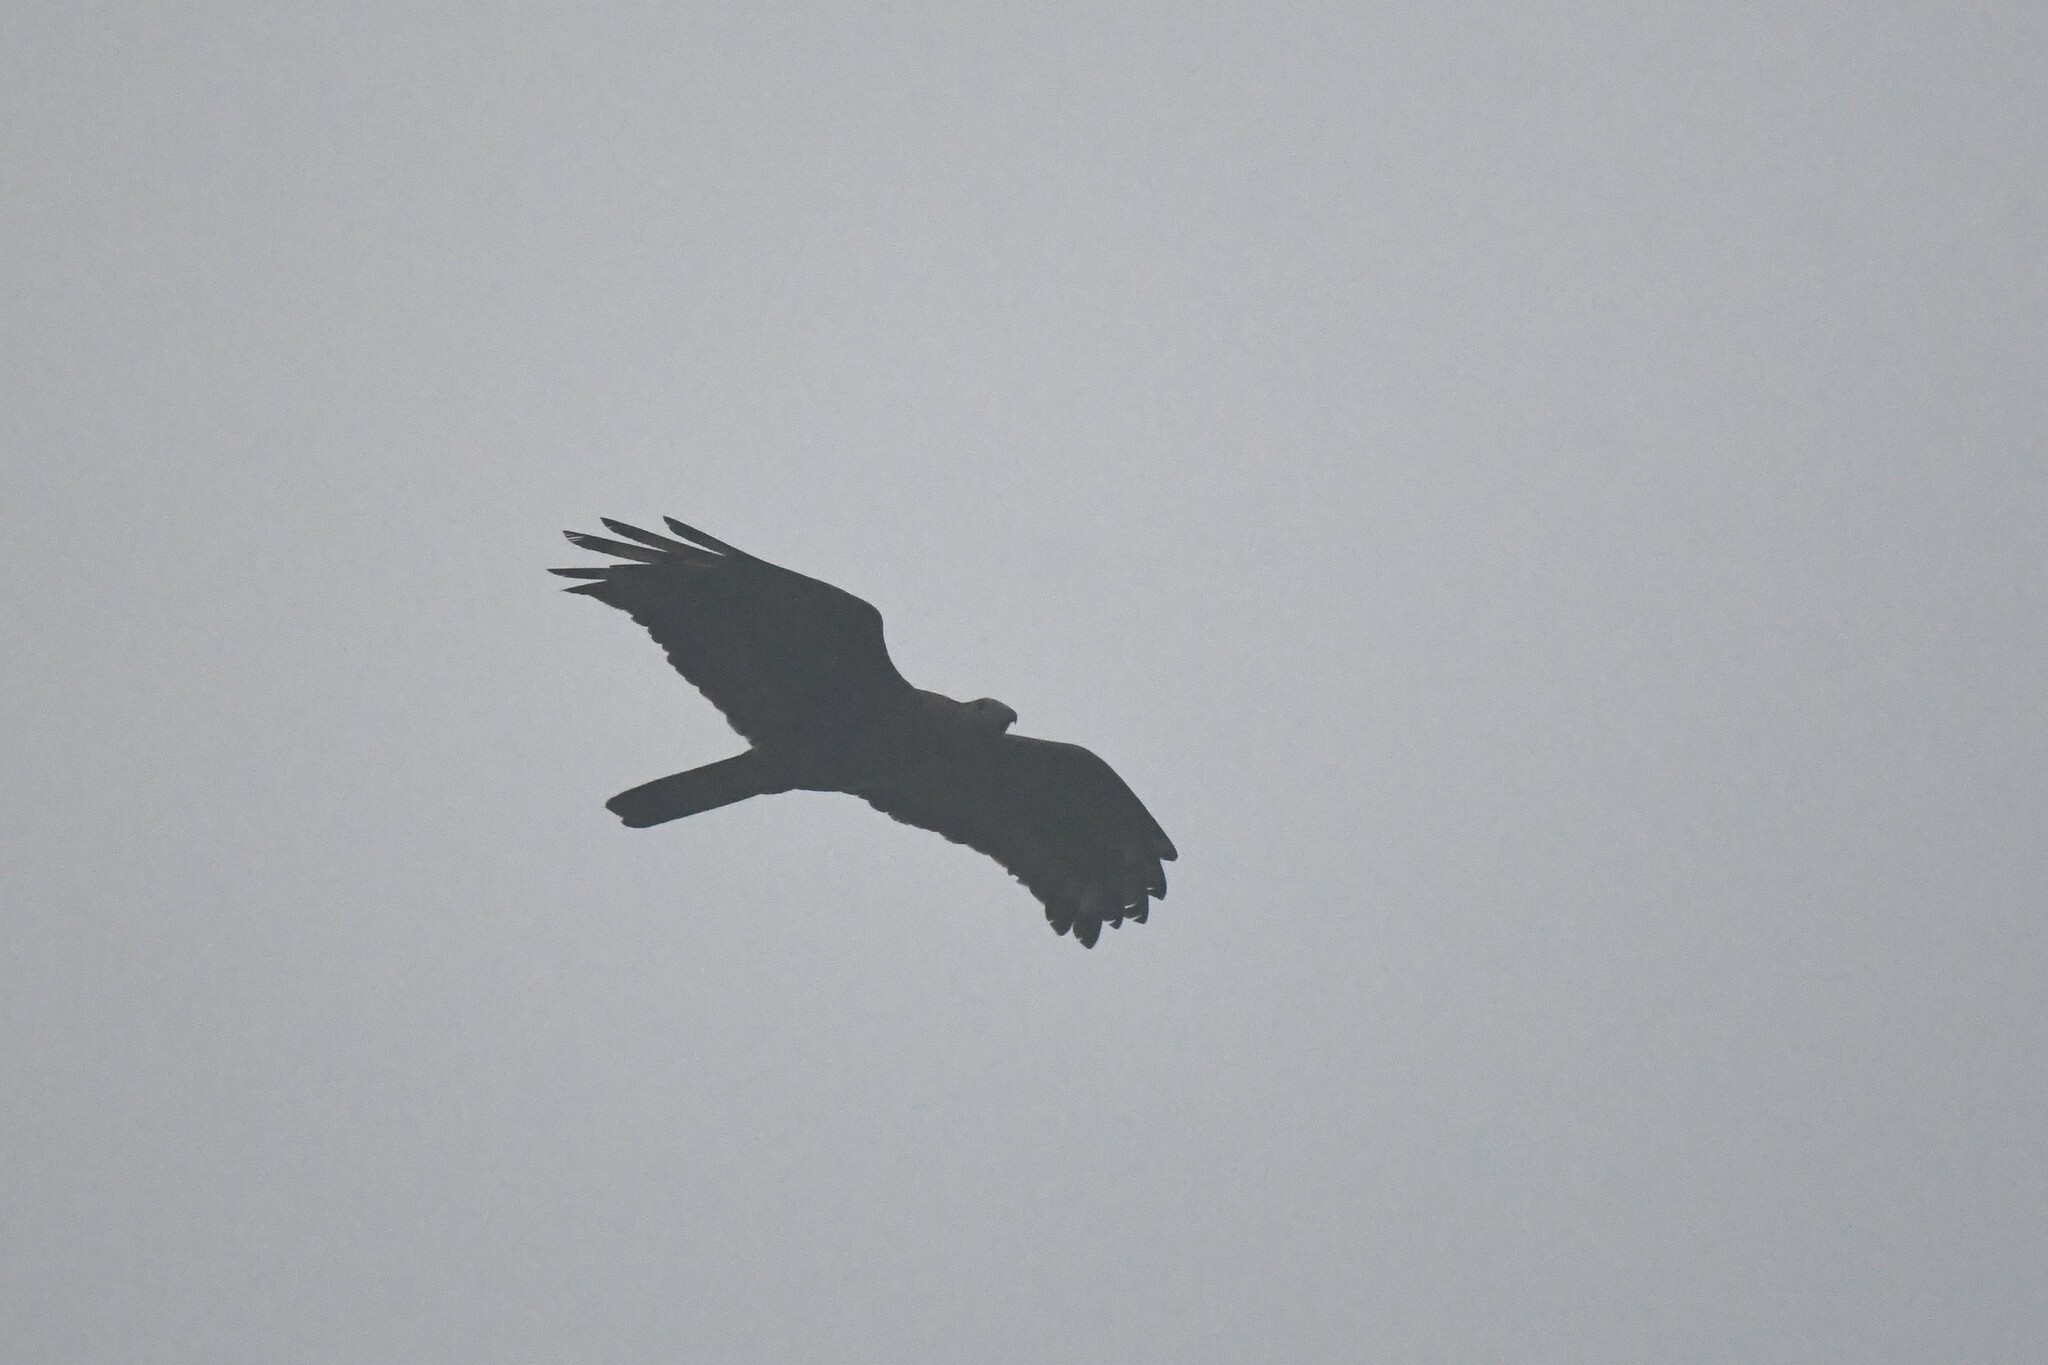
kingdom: Animalia
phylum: Chordata
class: Aves
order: Accipitriformes
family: Accipitridae
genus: Pernis
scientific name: Pernis ptilorhynchus
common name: Crested honey buzzard
